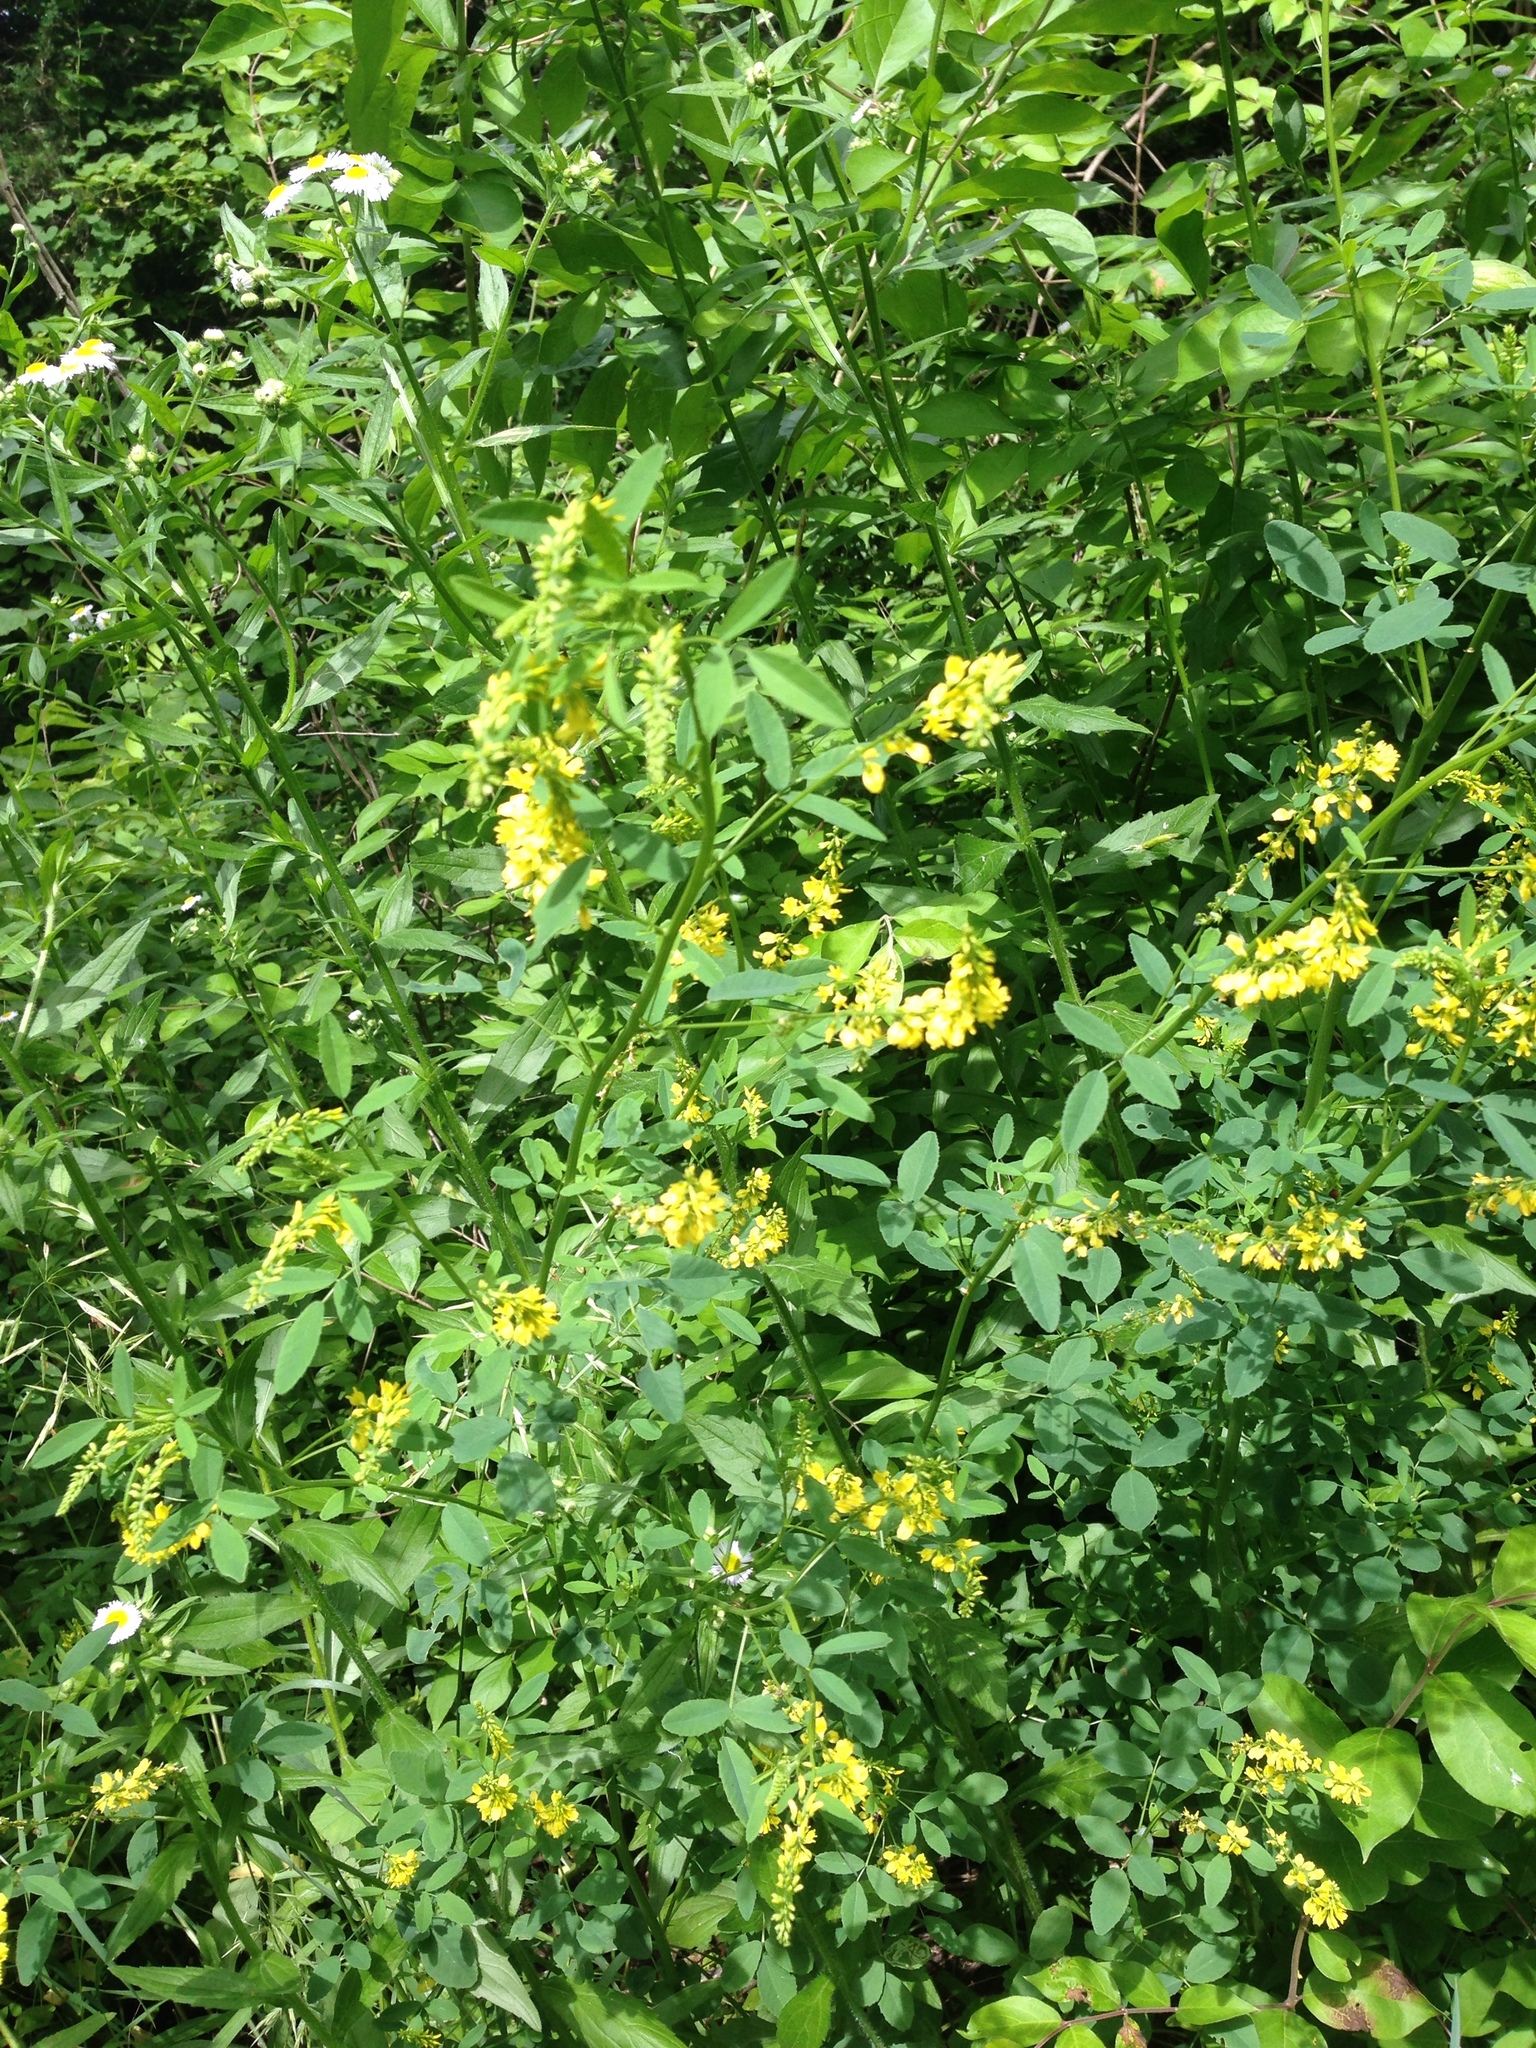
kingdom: Plantae
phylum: Tracheophyta
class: Magnoliopsida
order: Fabales
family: Fabaceae
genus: Melilotus
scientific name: Melilotus officinalis
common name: Sweetclover
